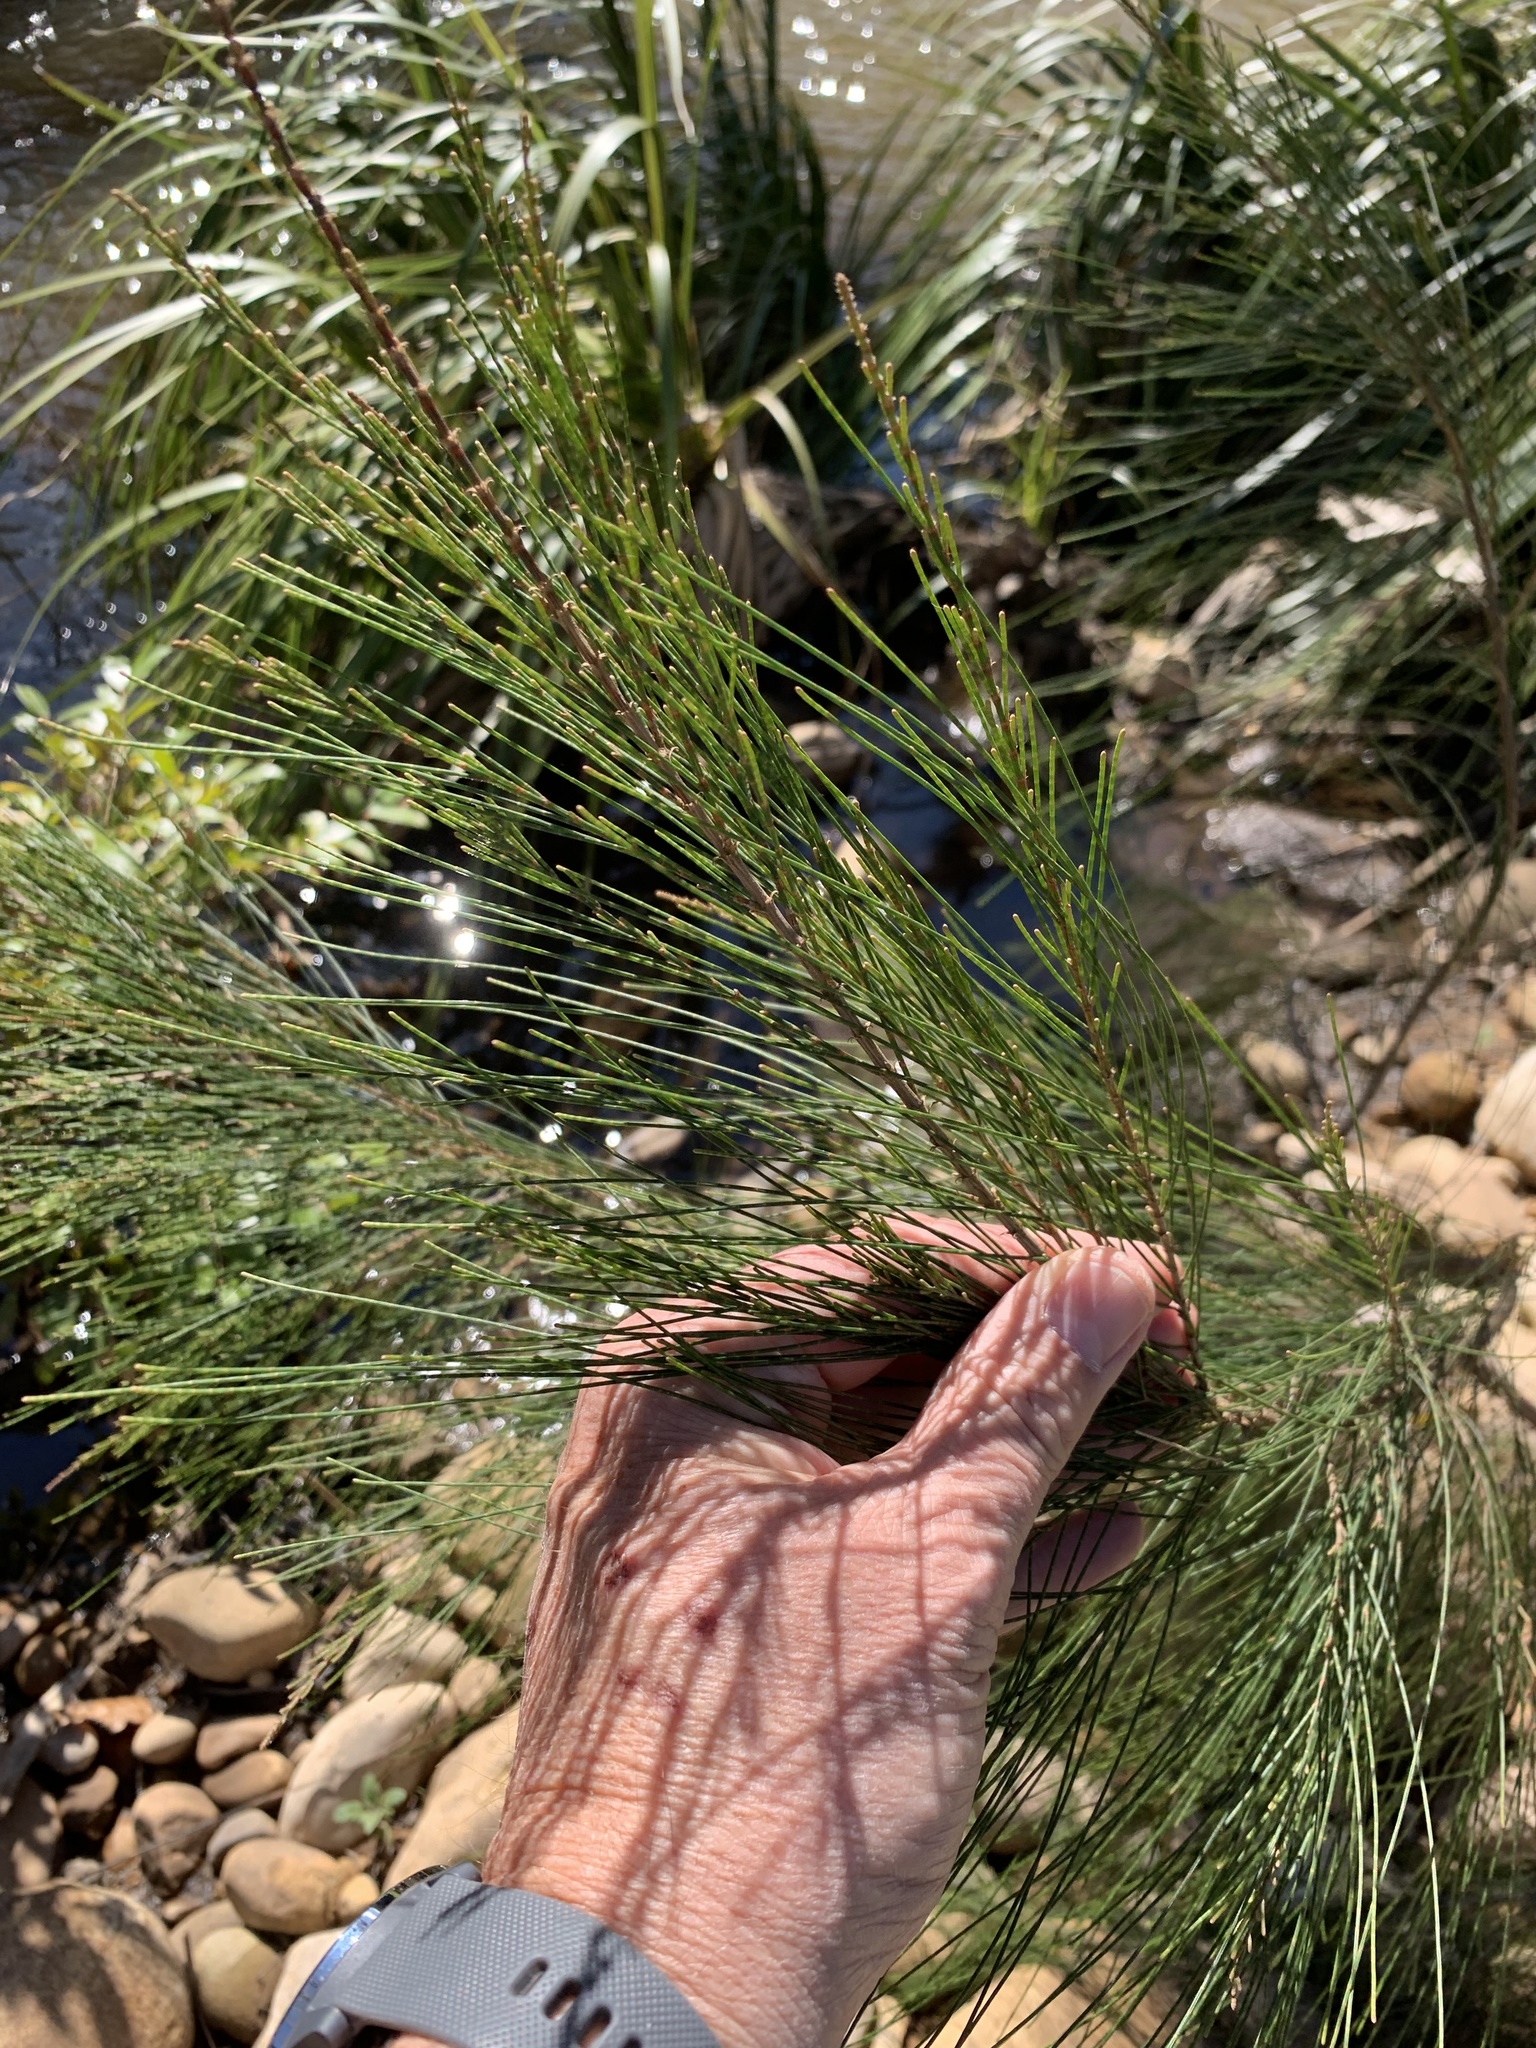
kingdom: Plantae
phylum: Tracheophyta
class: Magnoliopsida
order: Fagales
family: Casuarinaceae
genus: Casuarina
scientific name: Casuarina cunninghamiana
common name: River sheoak
